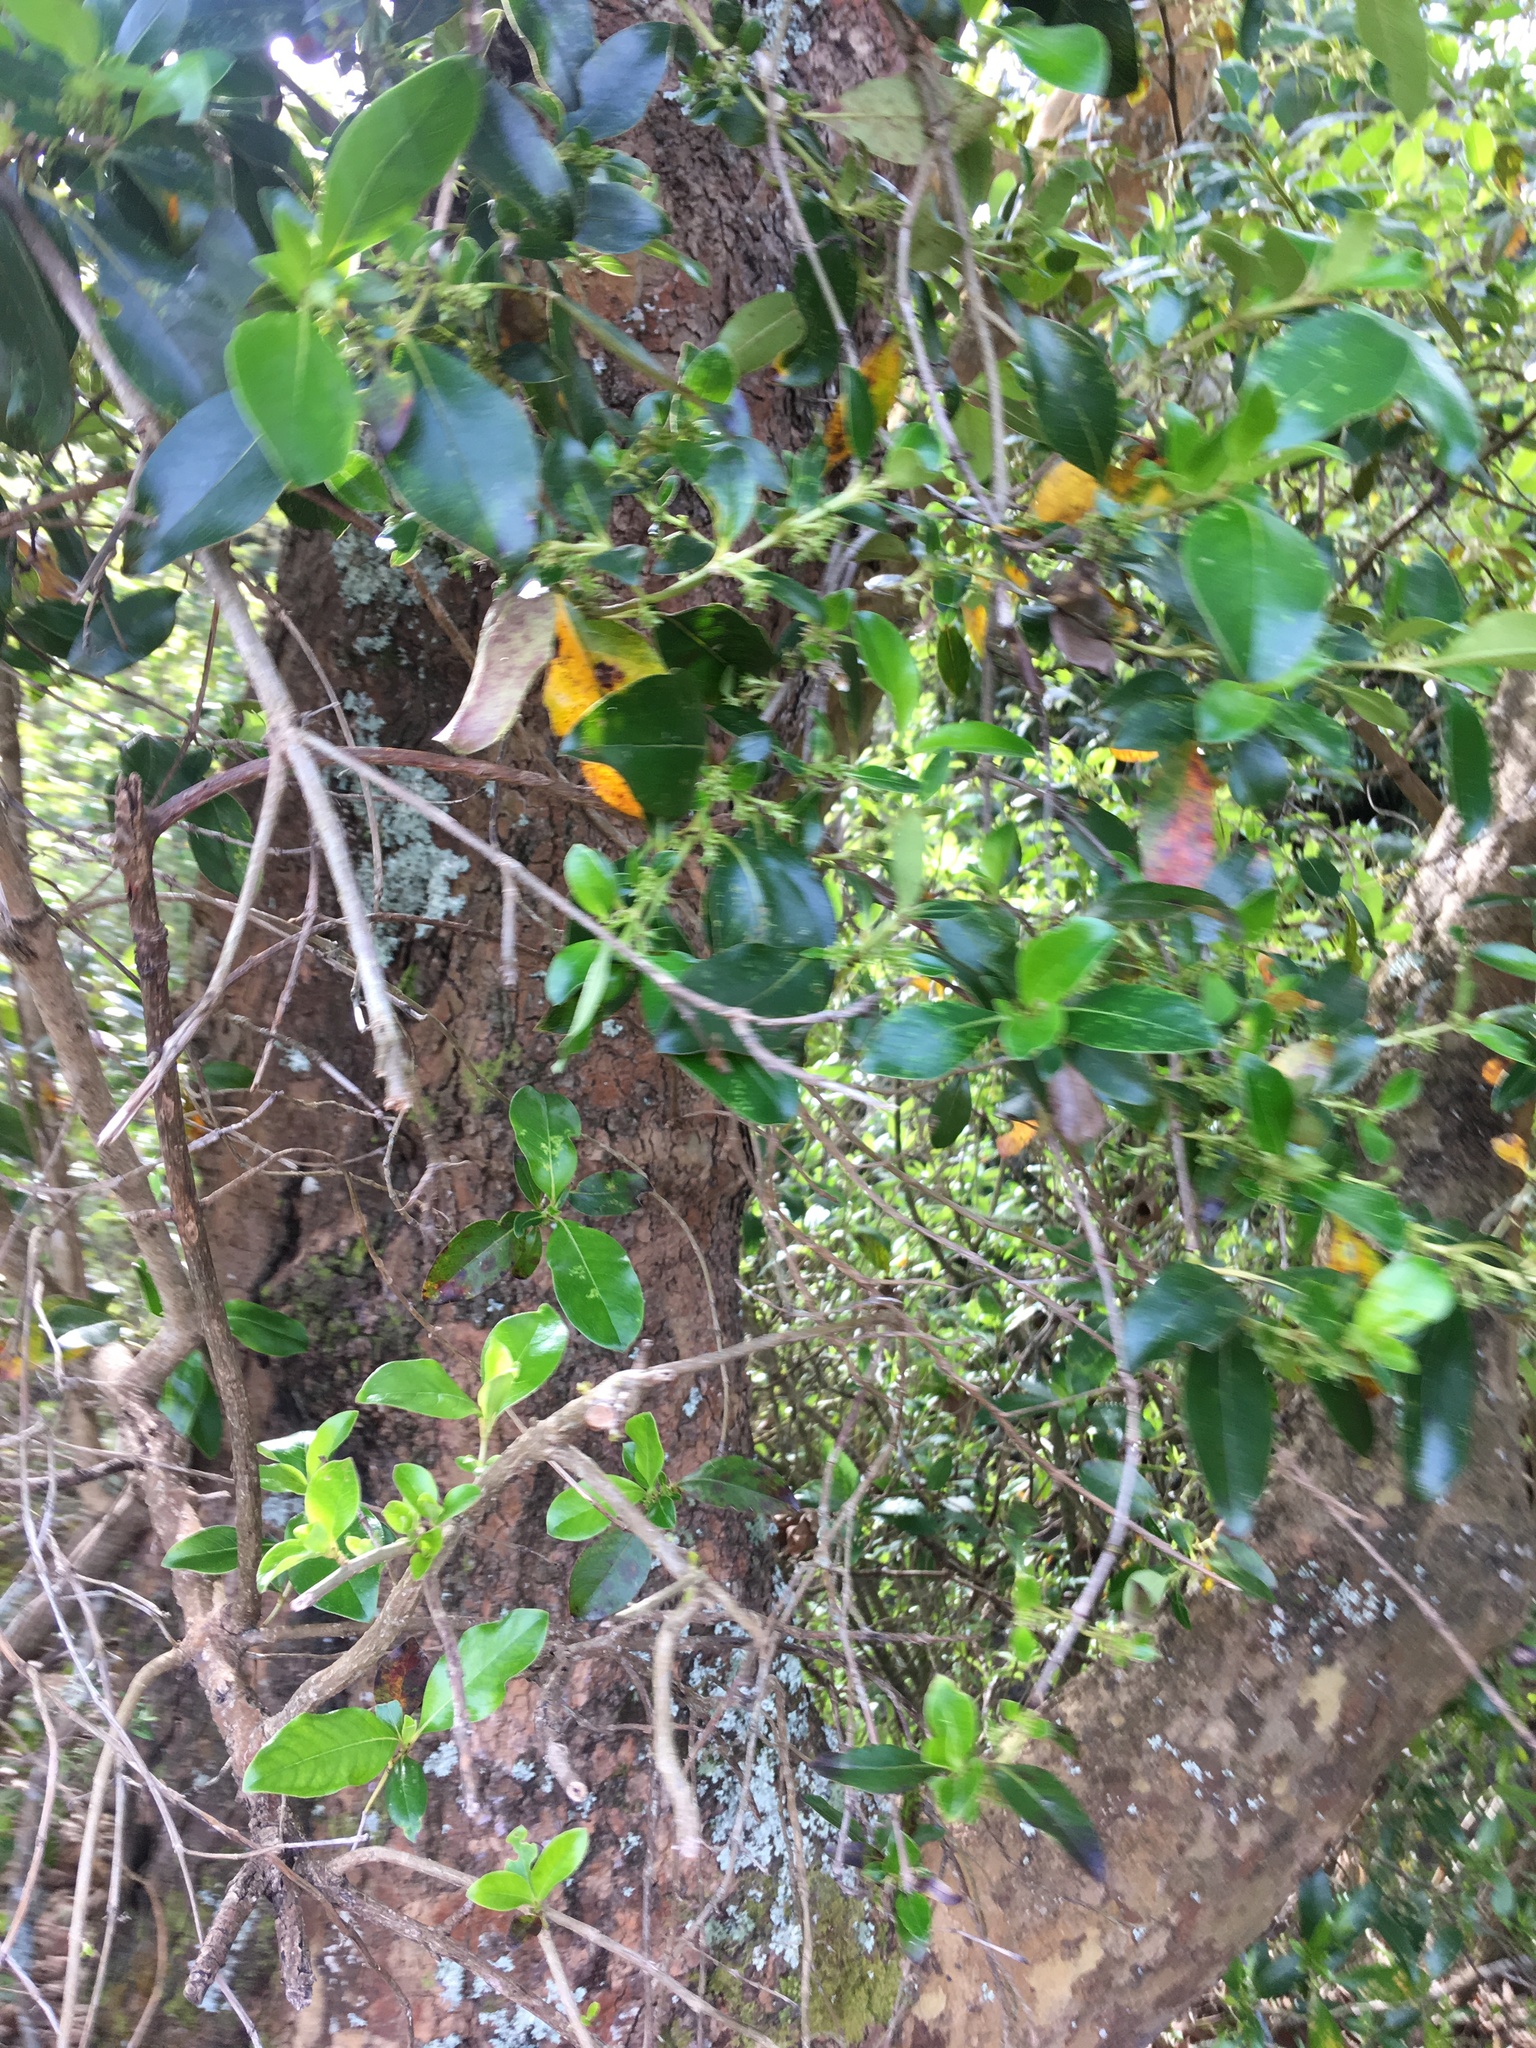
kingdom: Plantae
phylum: Tracheophyta
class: Magnoliopsida
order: Gentianales
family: Rubiaceae
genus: Coprosma
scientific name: Coprosma robusta
